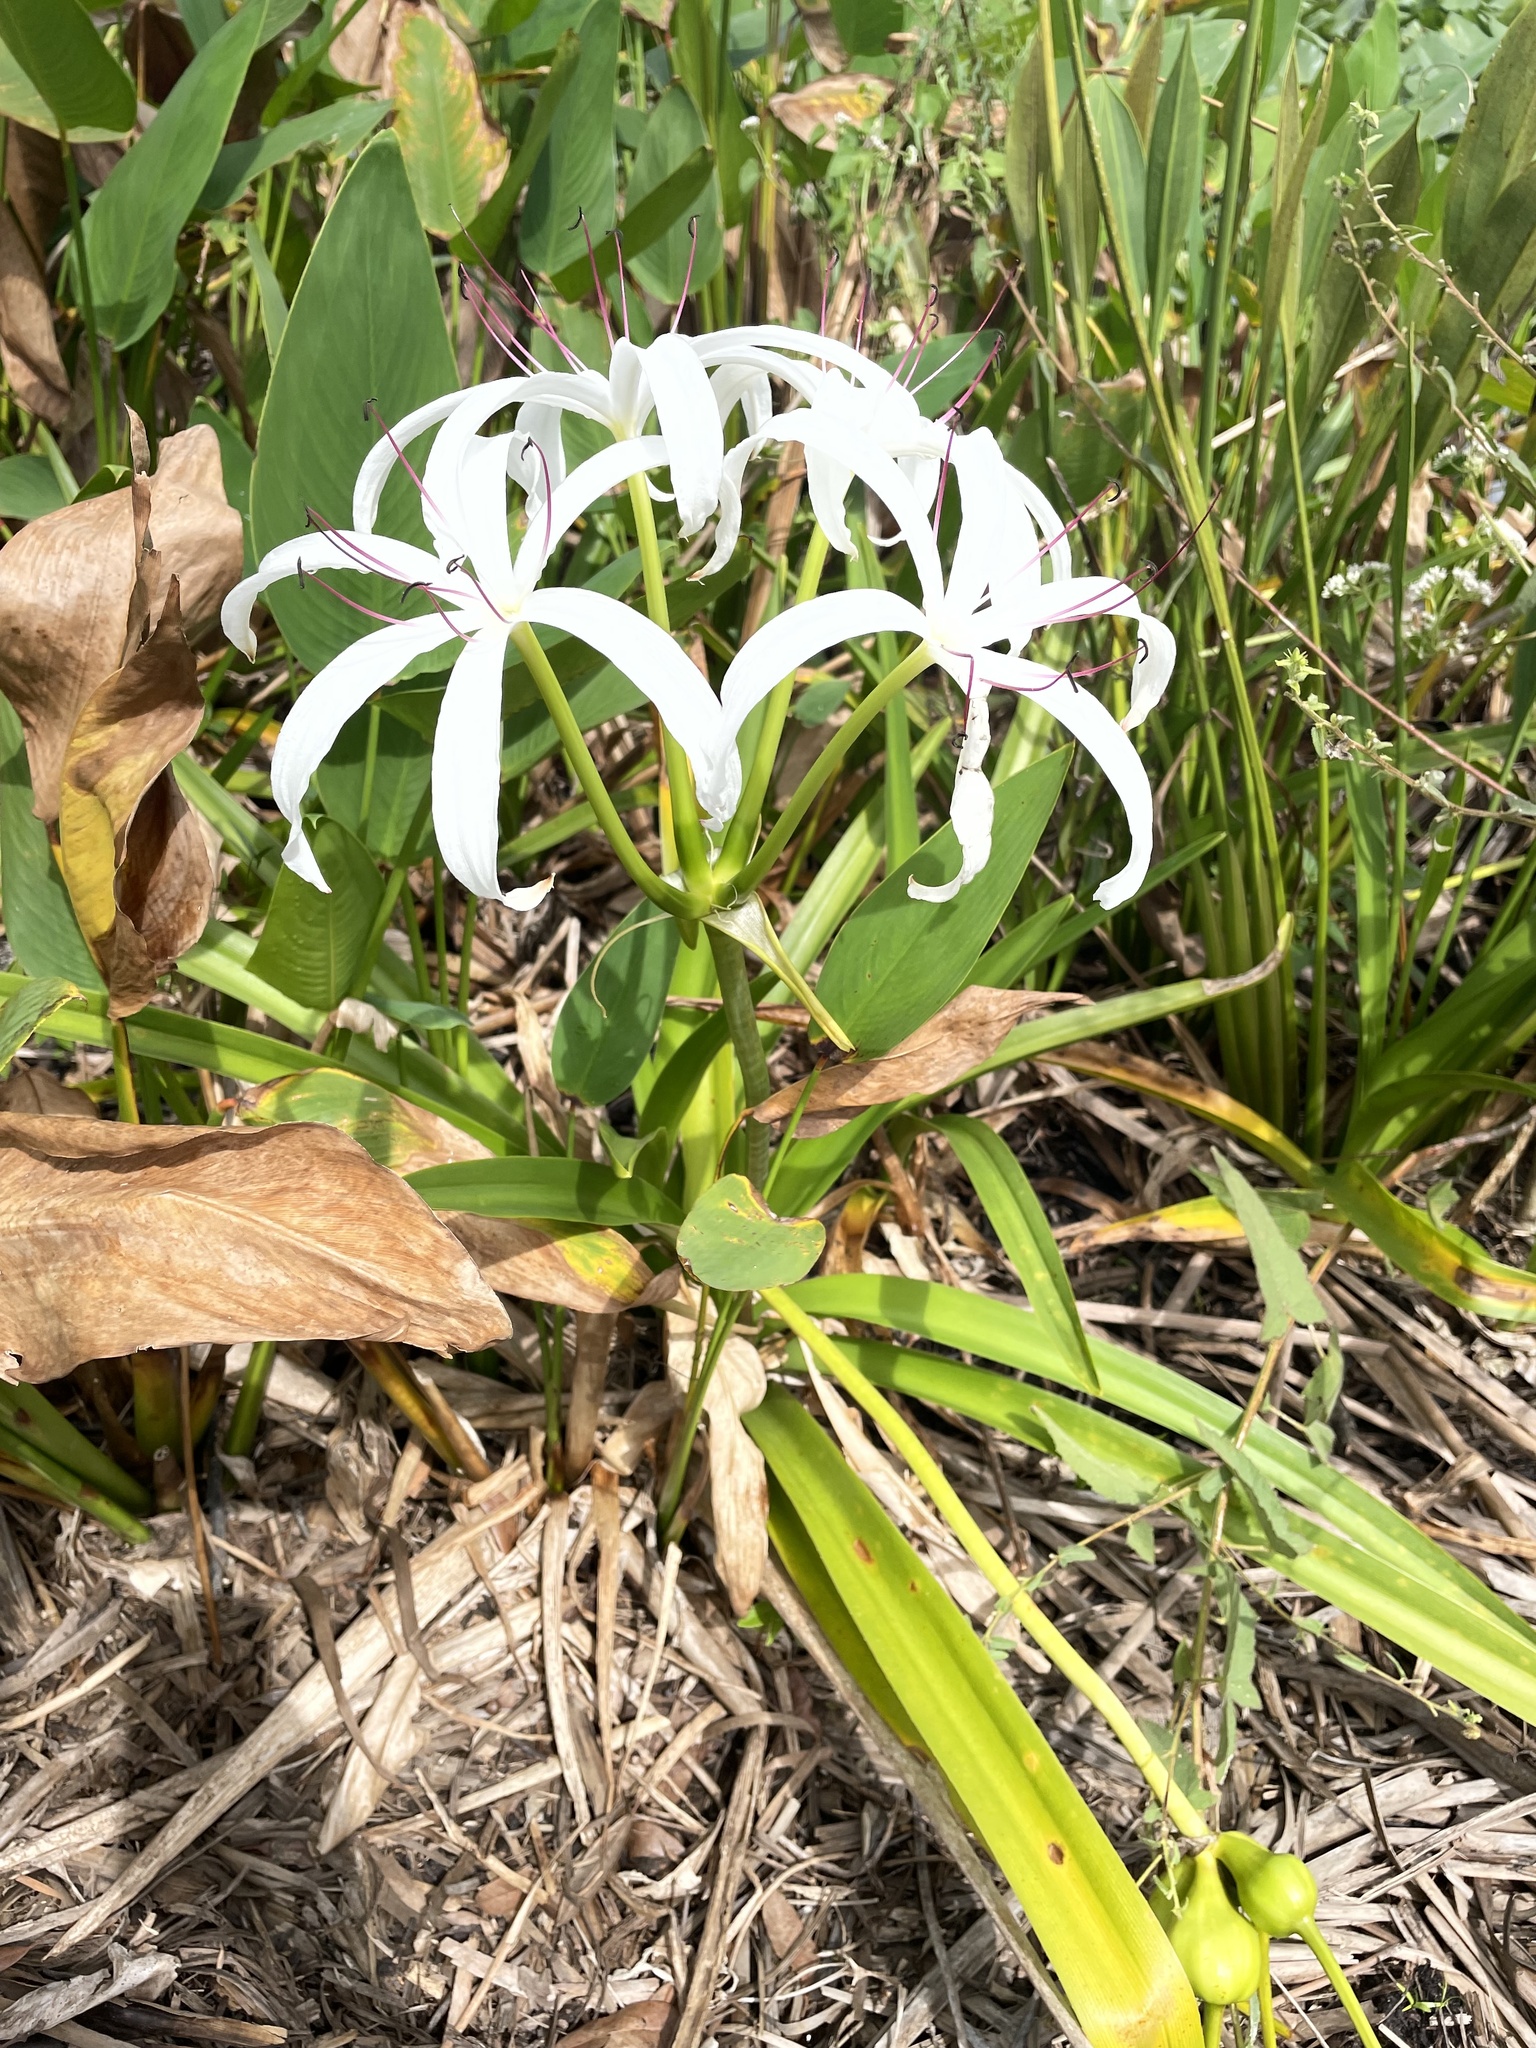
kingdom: Plantae
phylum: Tracheophyta
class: Liliopsida
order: Asparagales
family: Amaryllidaceae
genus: Crinum
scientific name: Crinum americanum
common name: Florida swamp-lily
